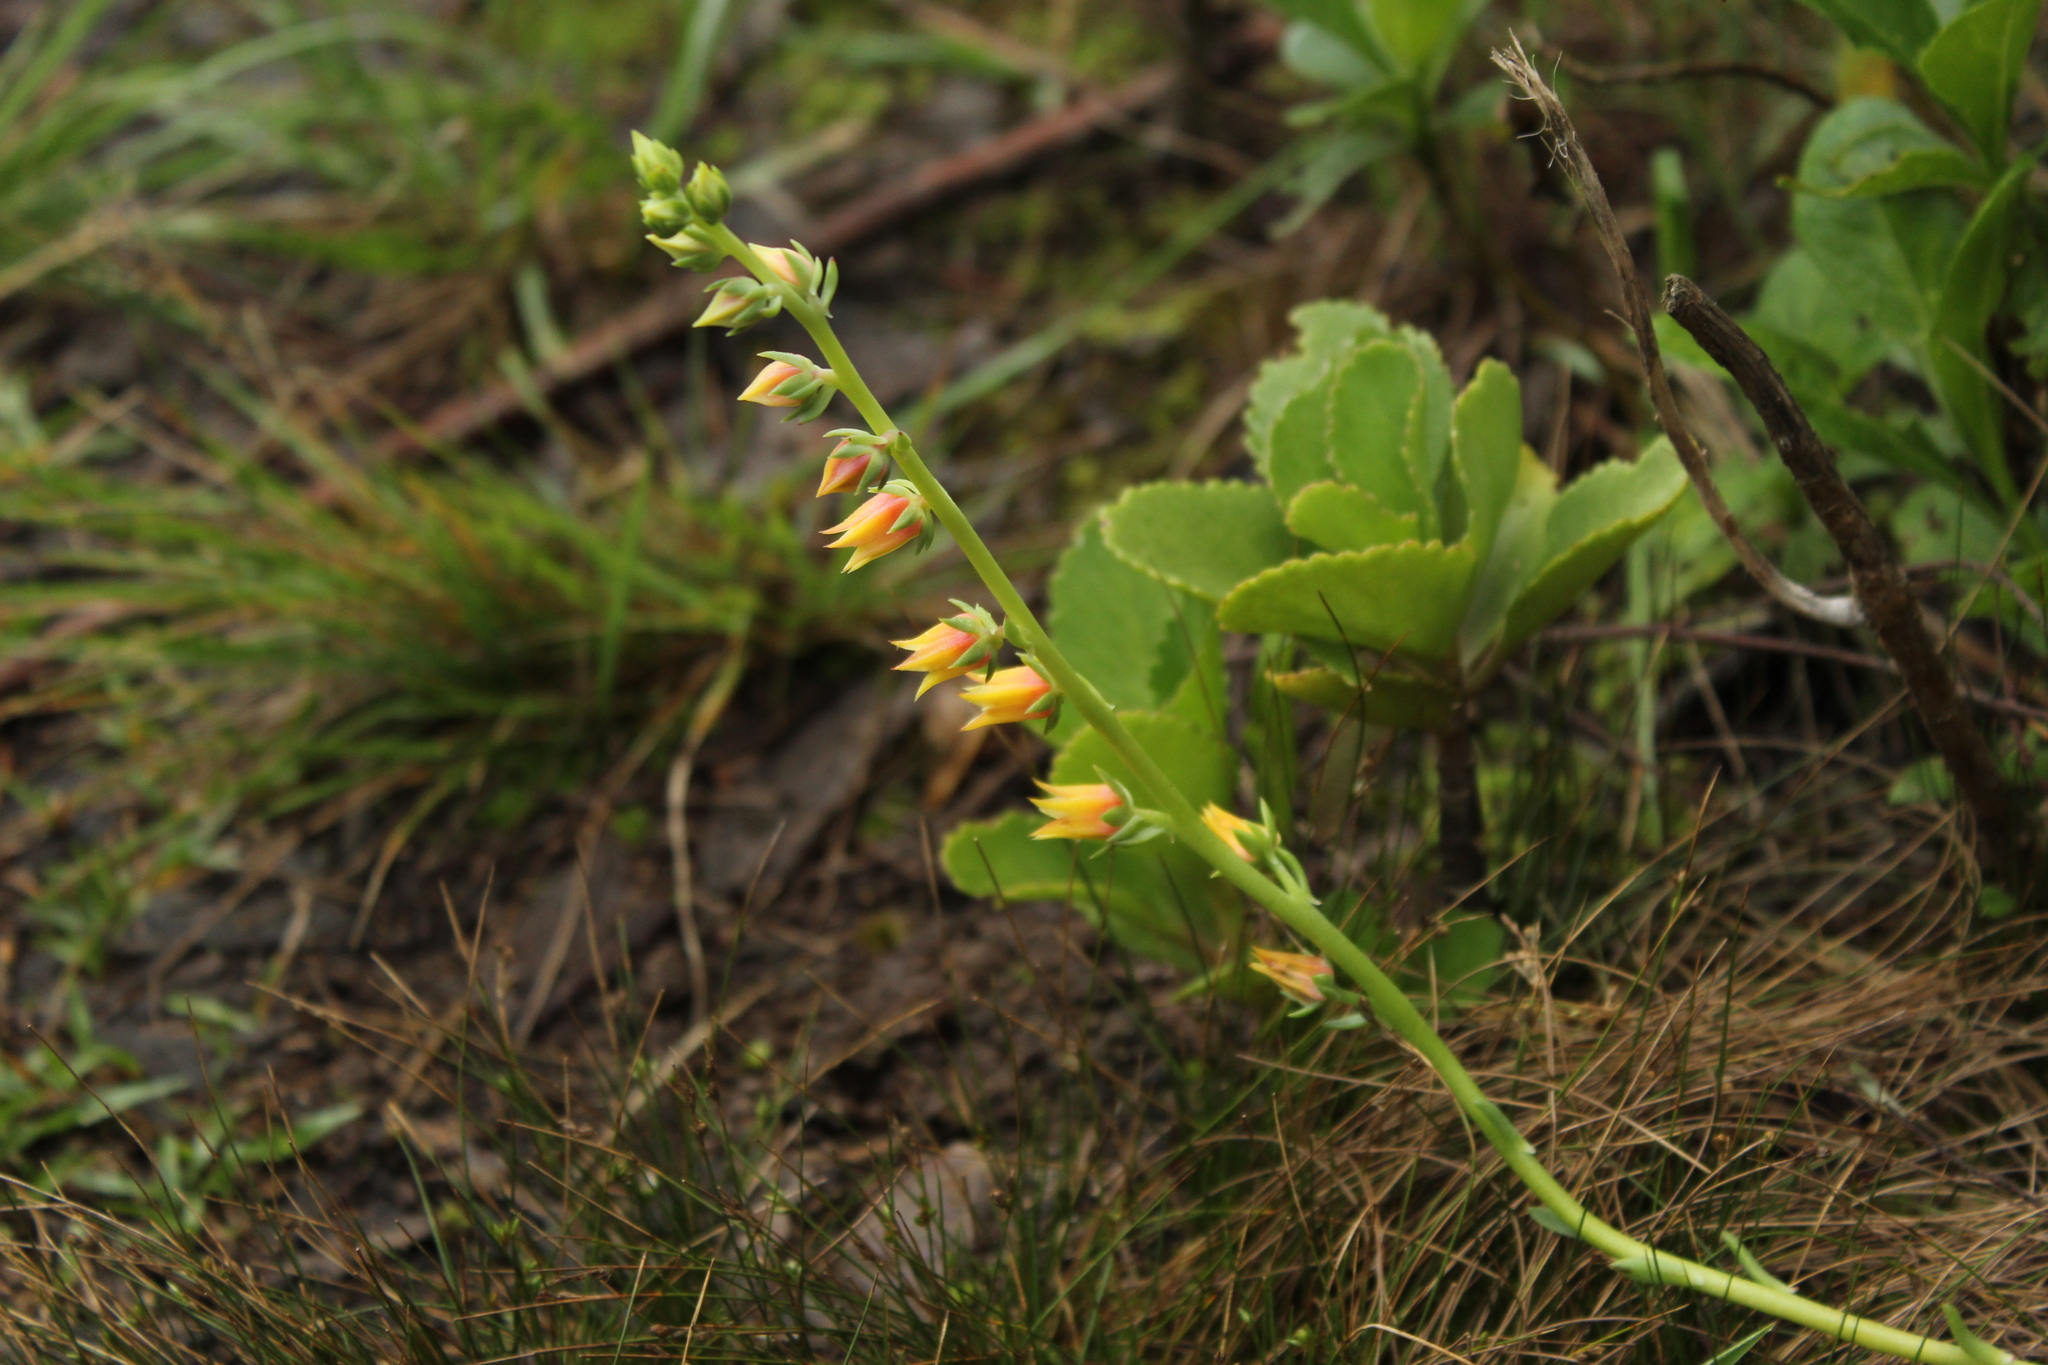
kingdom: Plantae
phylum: Tracheophyta
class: Magnoliopsida
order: Saxifragales
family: Crassulaceae
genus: Echeveria
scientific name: Echeveria bicolor
